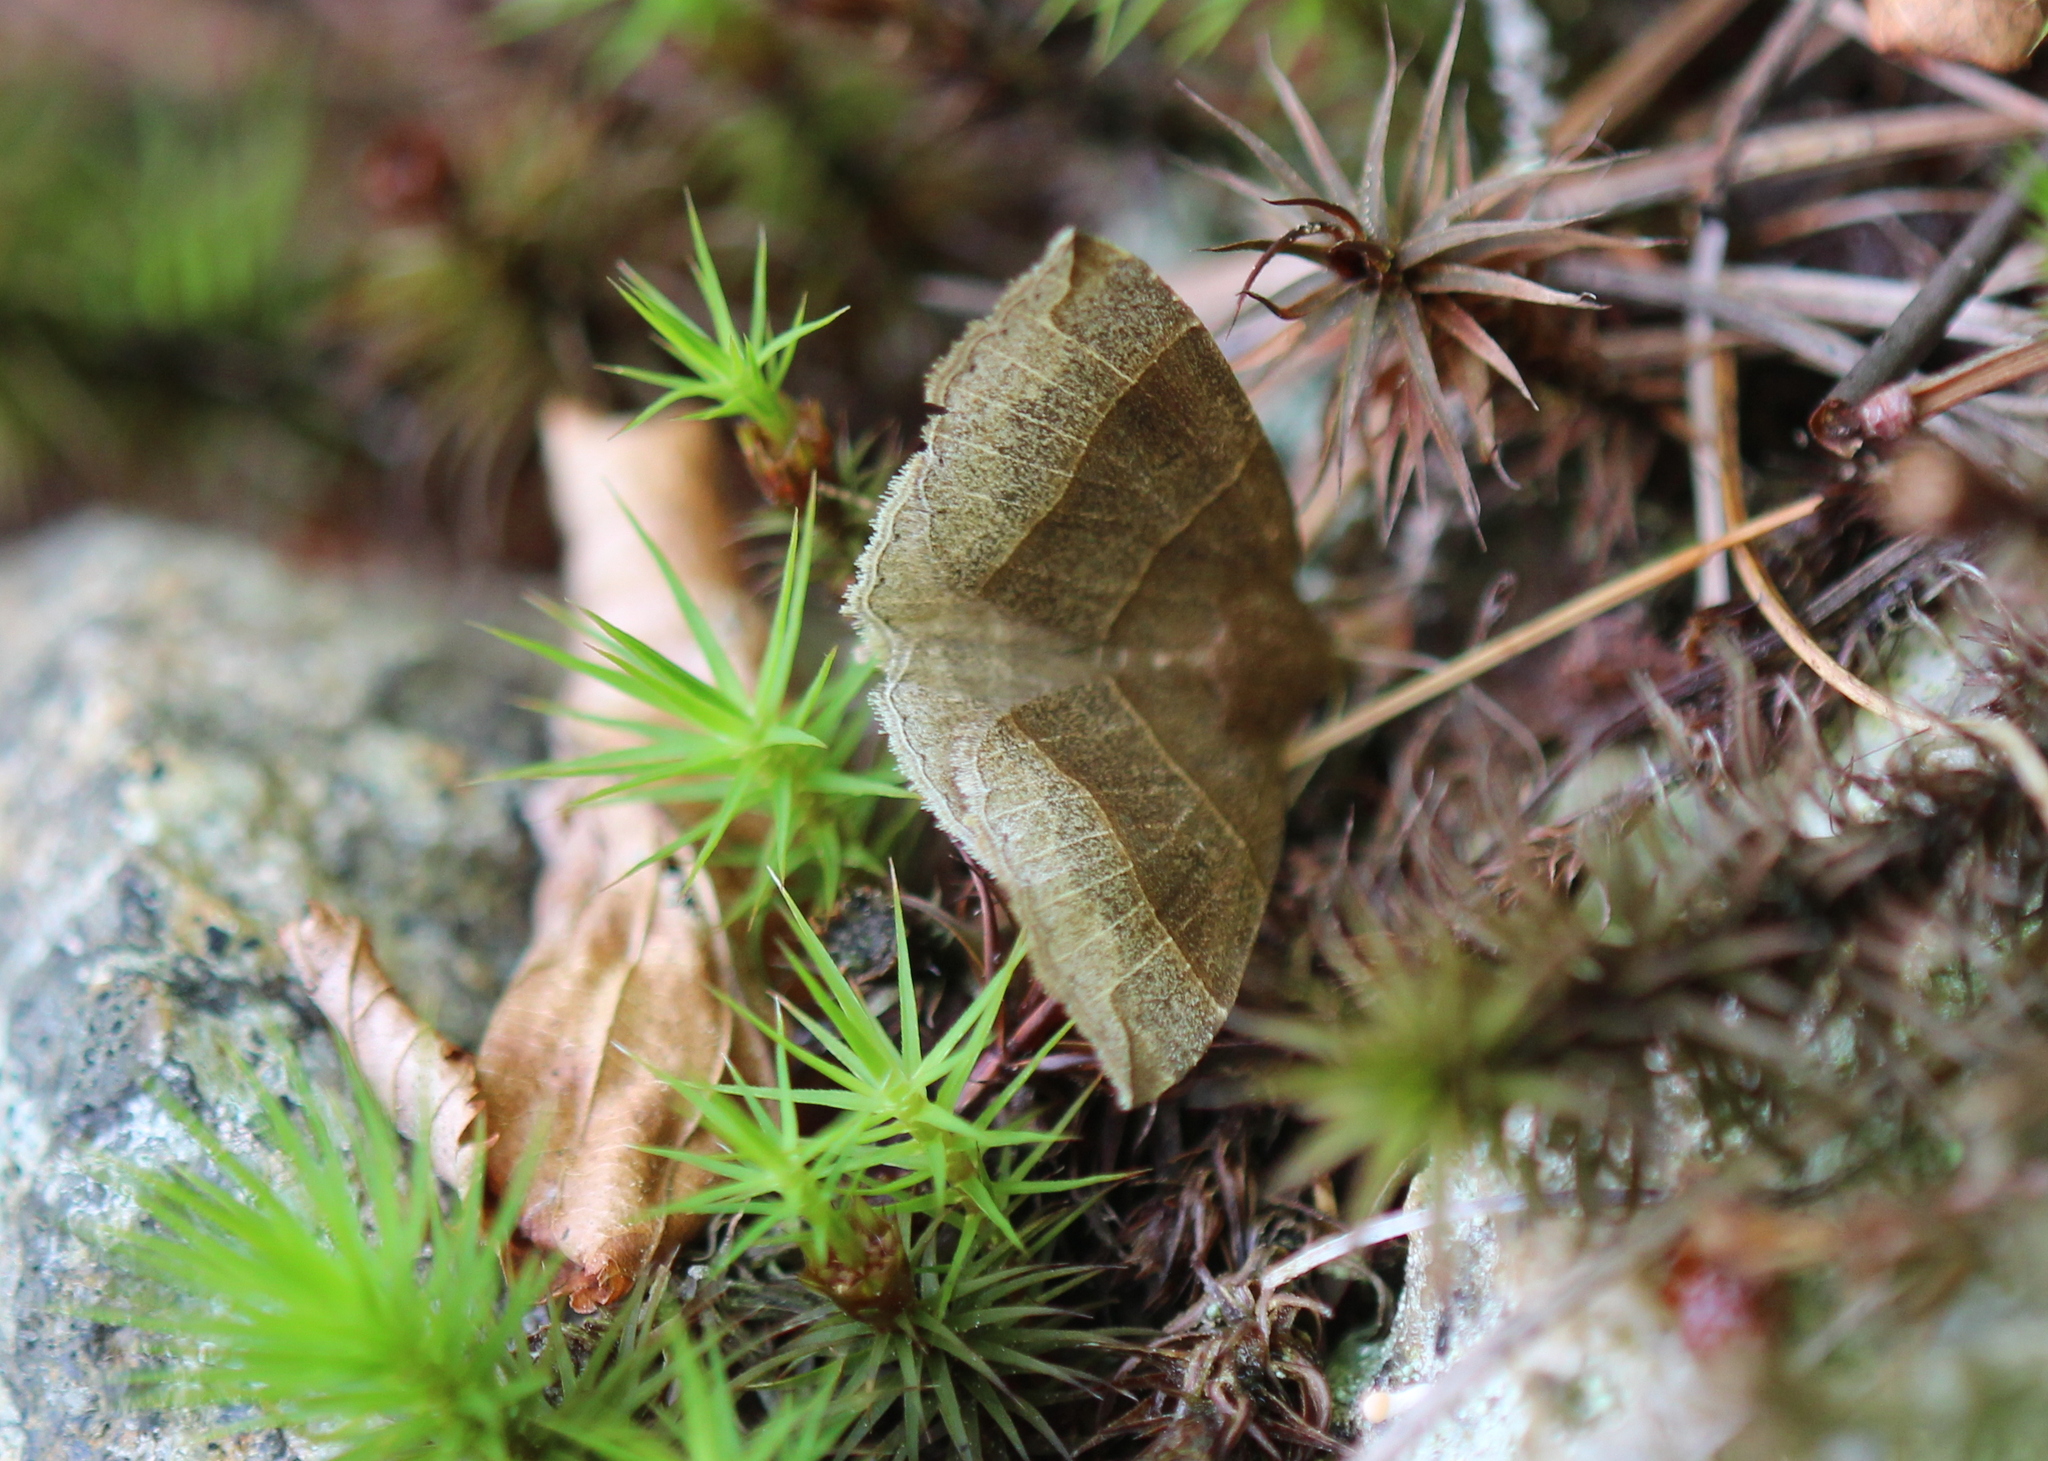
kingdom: Animalia
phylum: Arthropoda
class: Insecta
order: Lepidoptera
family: Erebidae
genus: Parallelia
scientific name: Parallelia bistriaris
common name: Maple looper moth
